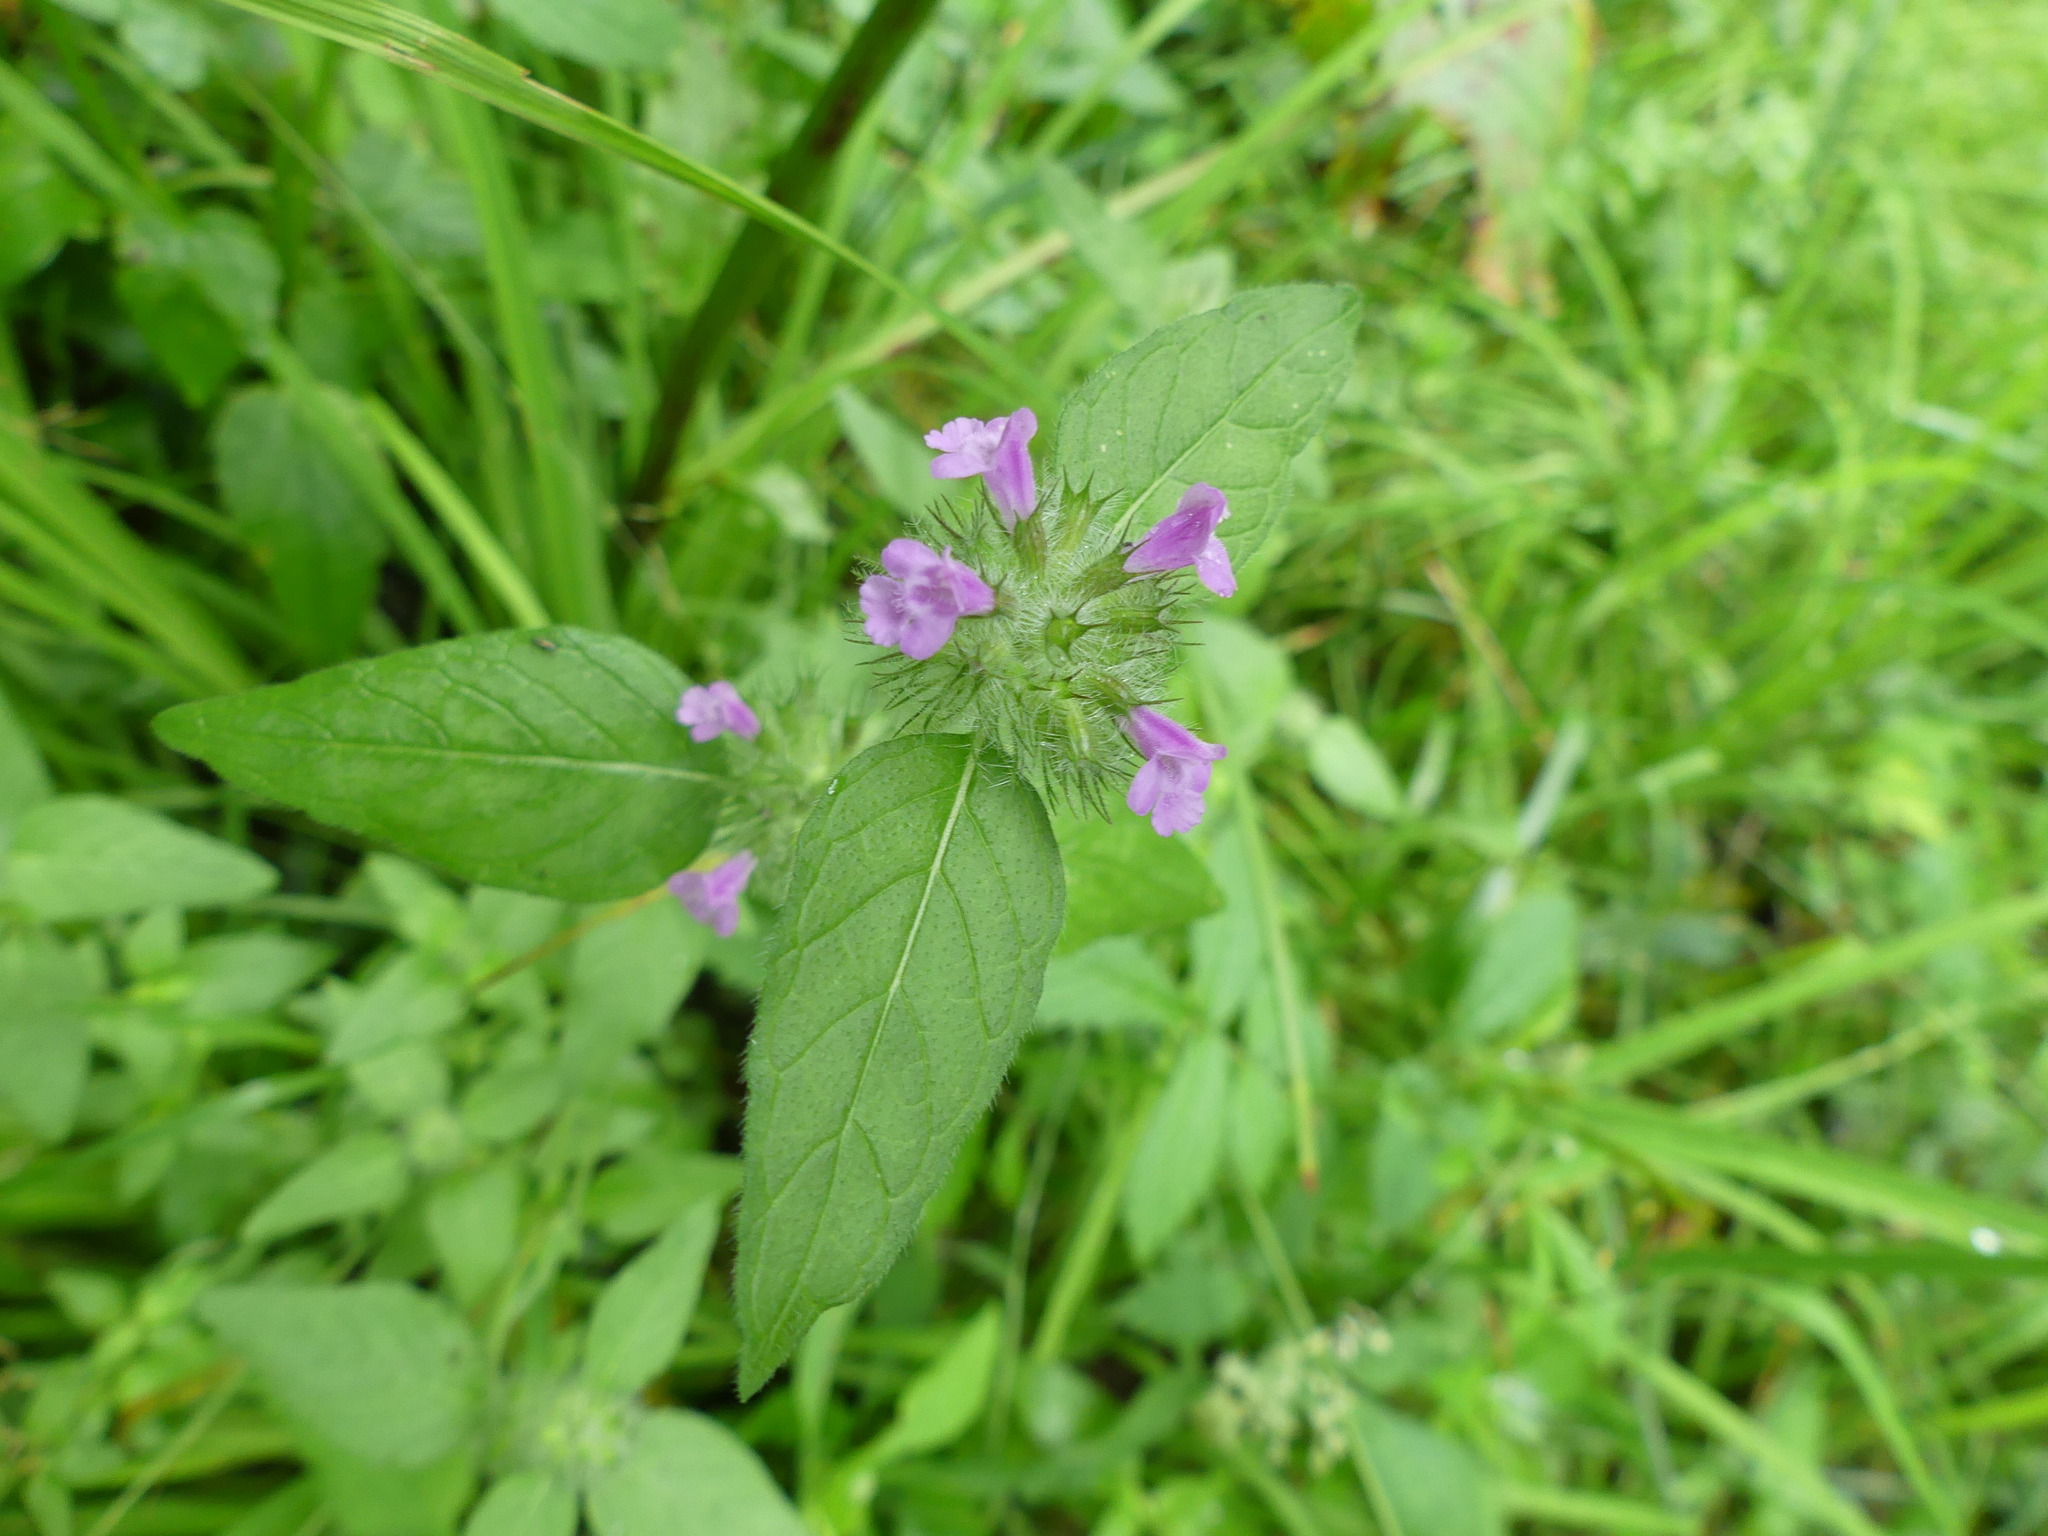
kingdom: Plantae
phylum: Tracheophyta
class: Magnoliopsida
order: Lamiales
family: Lamiaceae
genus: Clinopodium
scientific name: Clinopodium vulgare
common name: Wild basil
